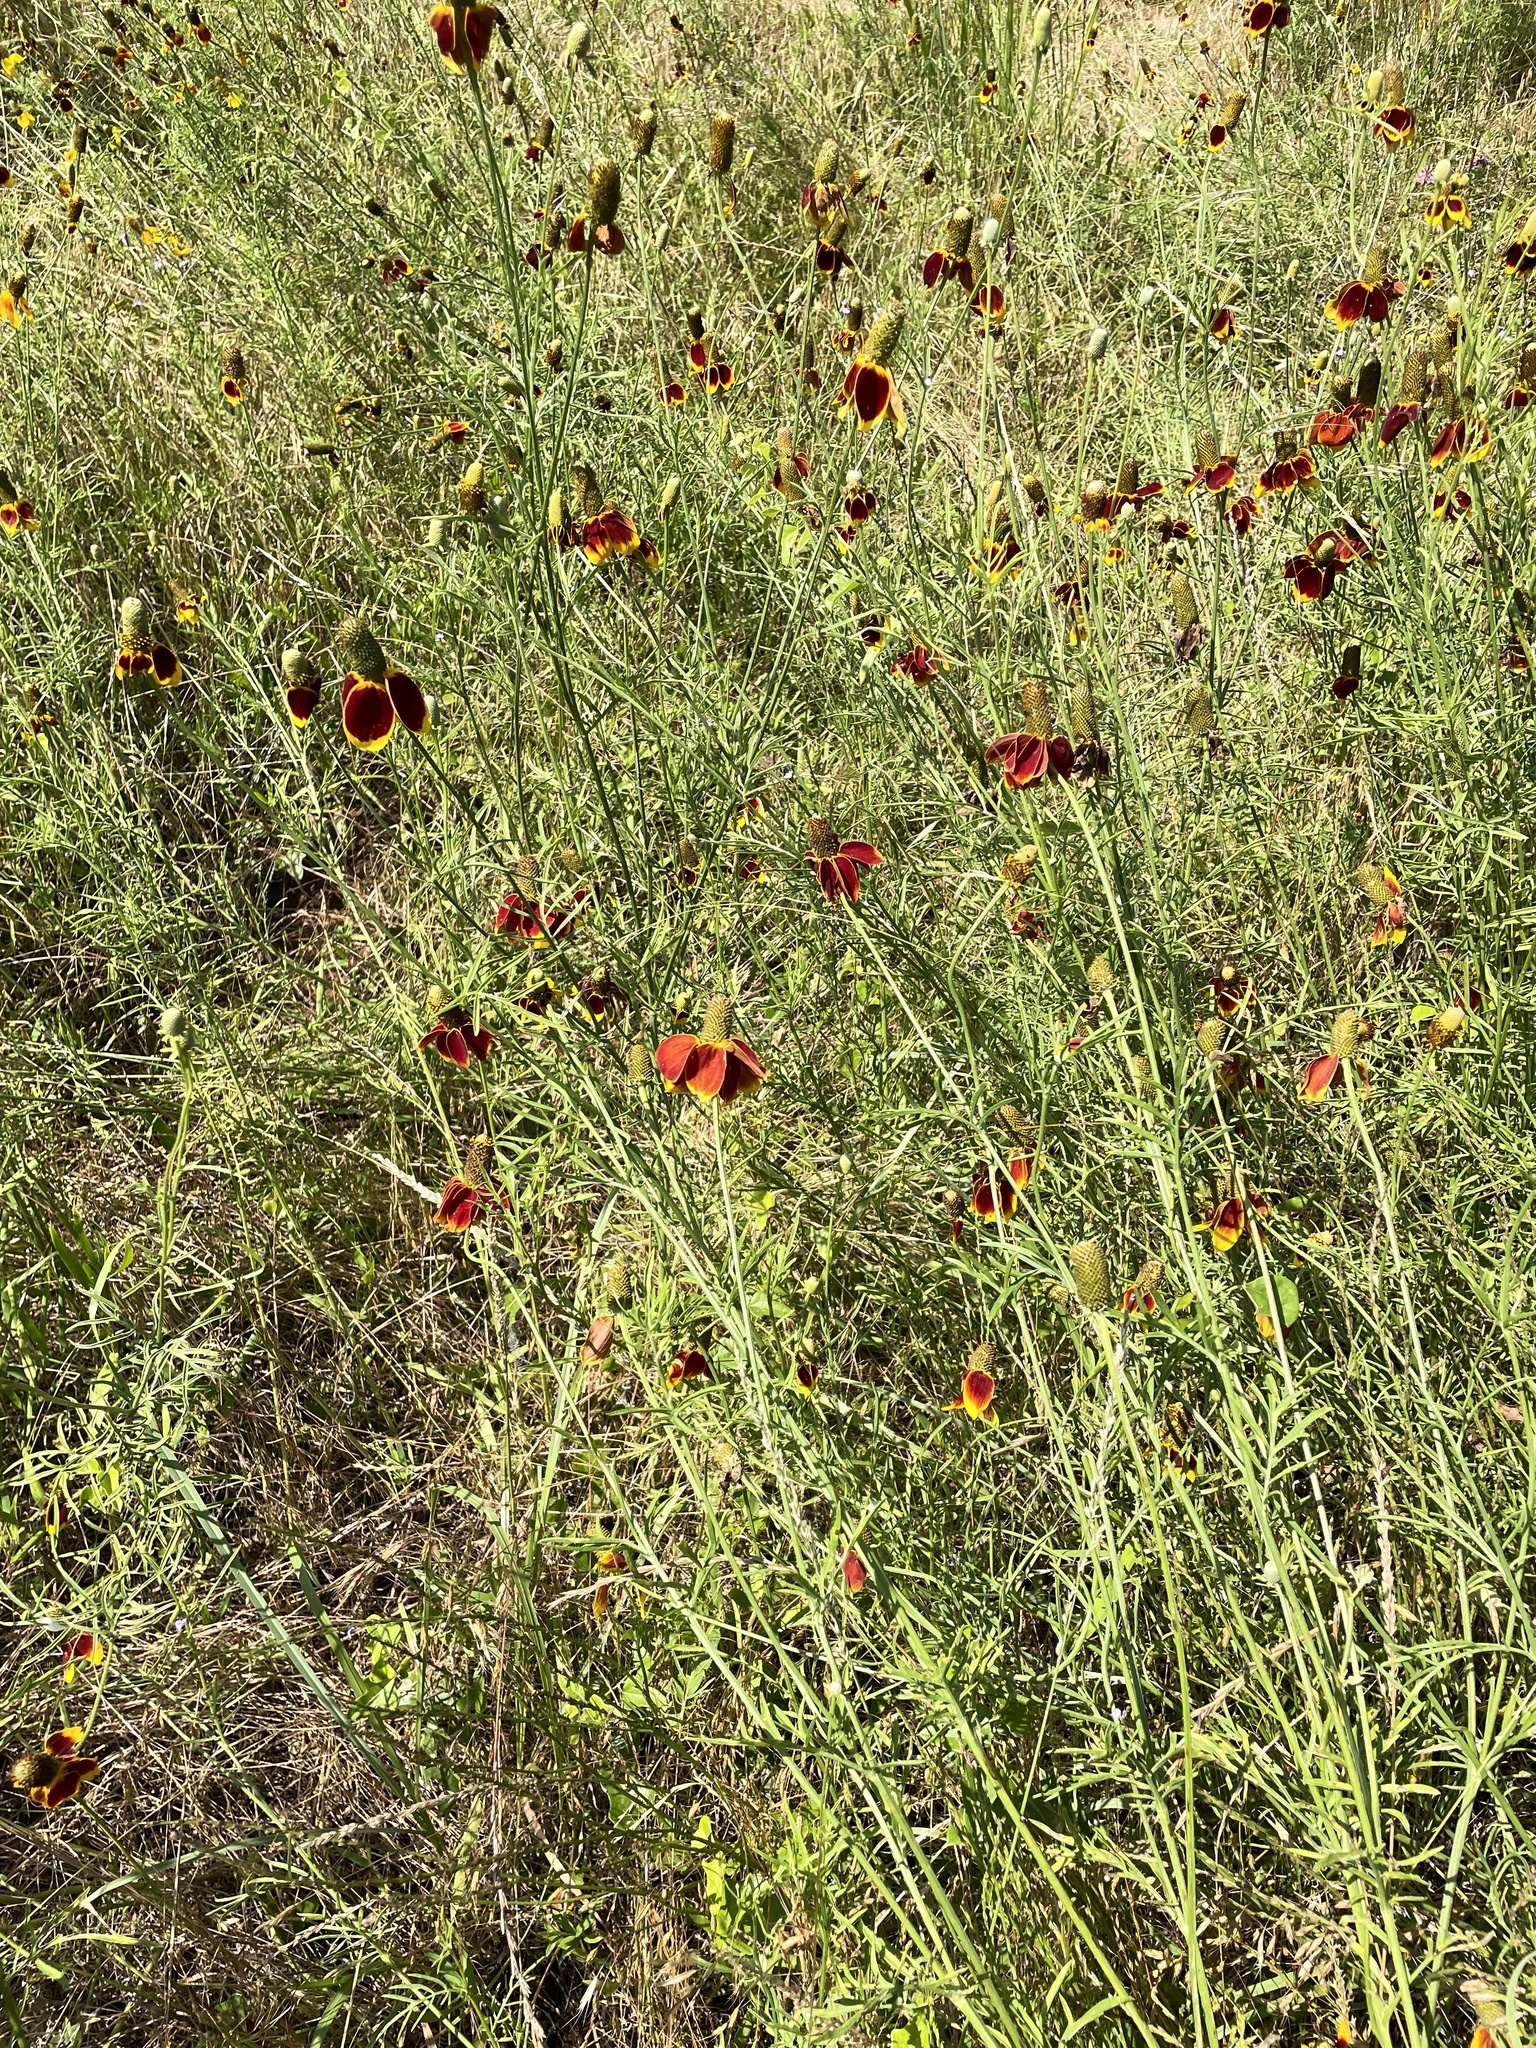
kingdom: Plantae
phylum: Tracheophyta
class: Magnoliopsida
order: Asterales
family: Asteraceae
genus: Ratibida
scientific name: Ratibida columnifera
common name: Prairie coneflower
